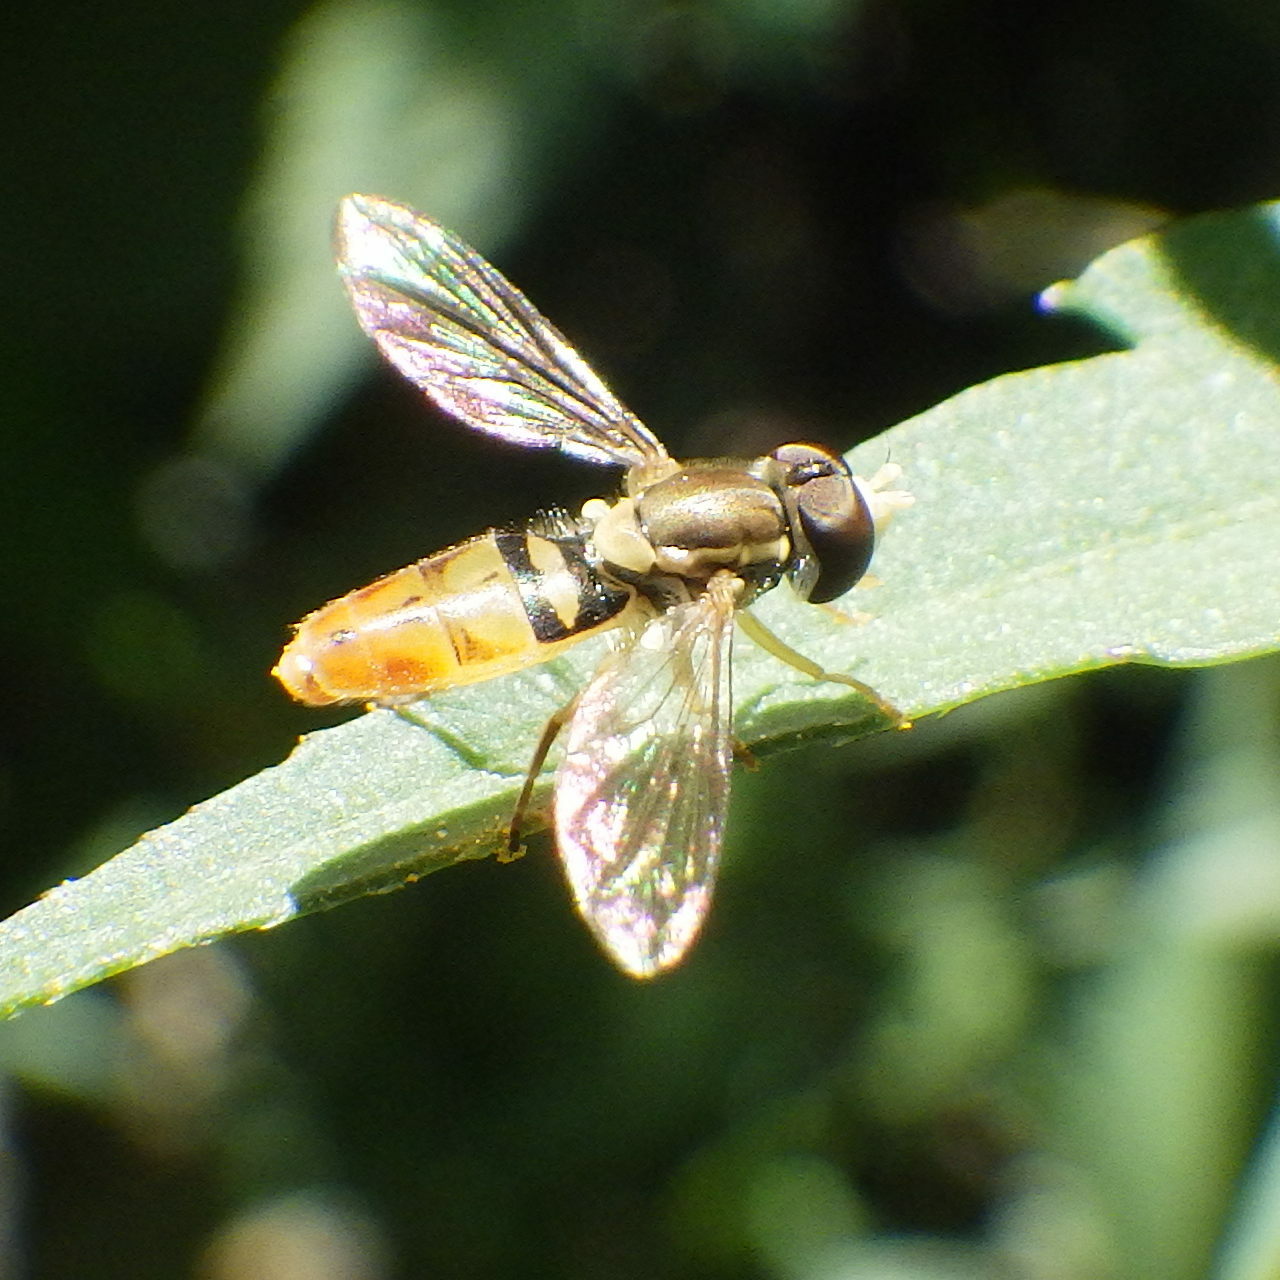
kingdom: Animalia
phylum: Arthropoda
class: Insecta
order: Diptera
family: Syrphidae
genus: Toxomerus
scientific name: Toxomerus marginatus
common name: Syrphid fly
